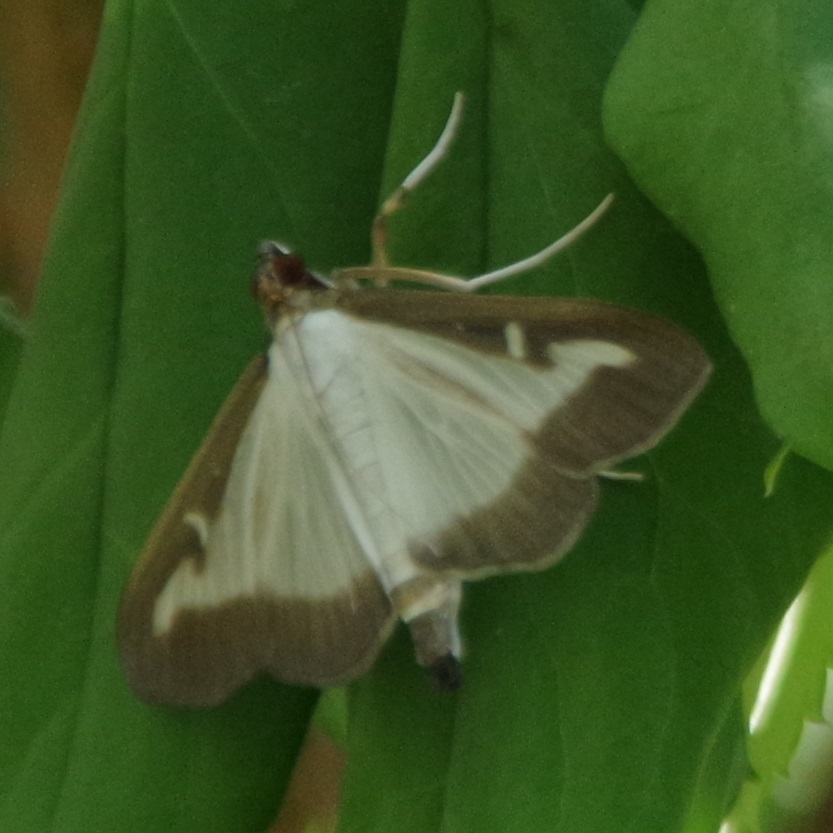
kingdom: Animalia
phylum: Arthropoda
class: Insecta
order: Lepidoptera
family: Crambidae
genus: Cydalima
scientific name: Cydalima perspectalis
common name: Box tree moth
